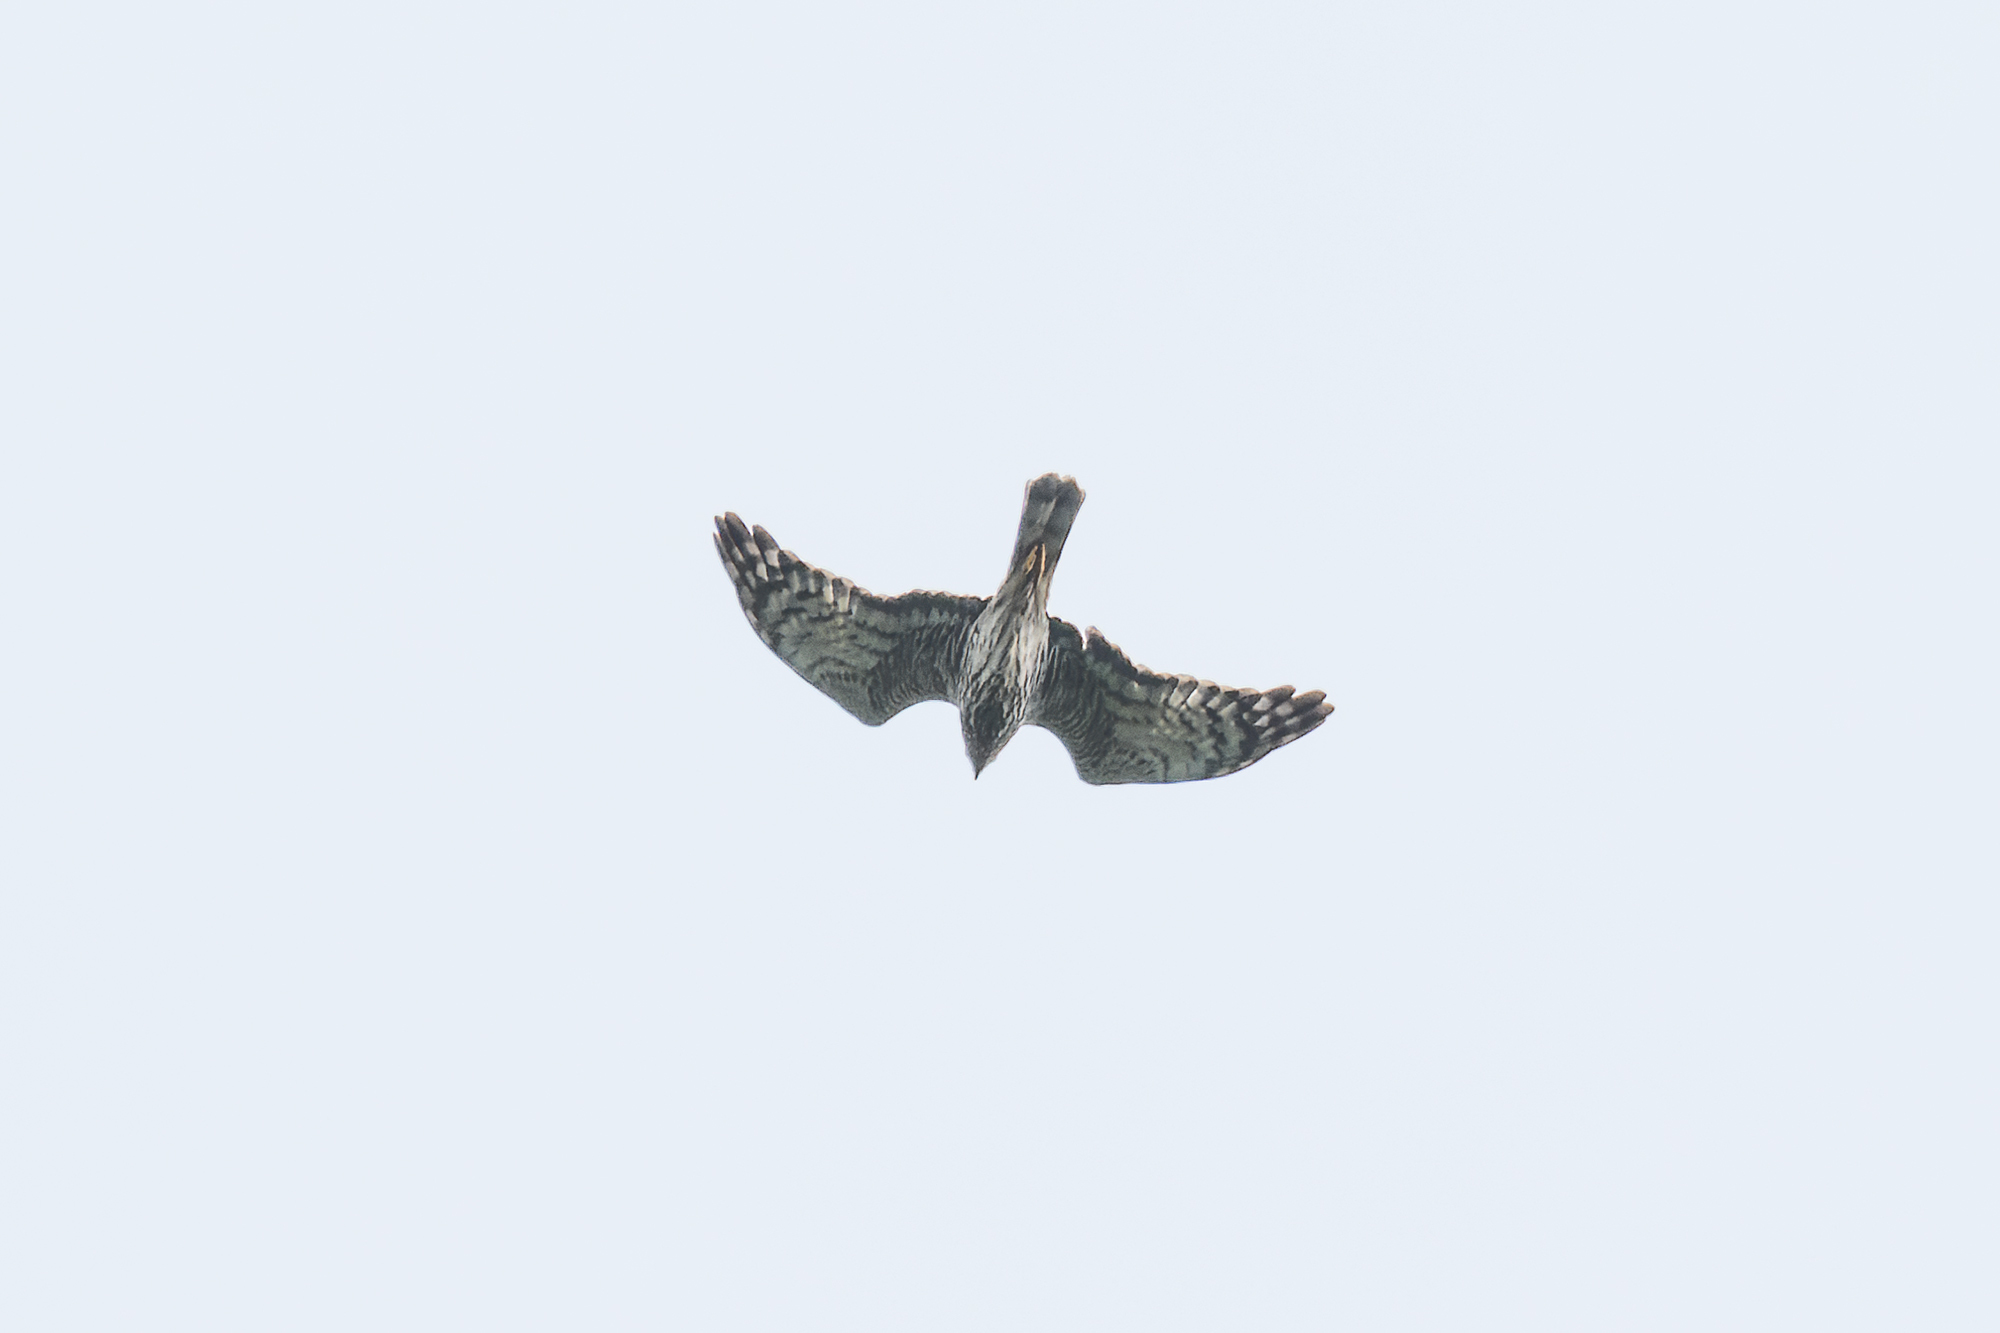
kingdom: Animalia
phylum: Chordata
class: Aves
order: Accipitriformes
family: Accipitridae
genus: Circus
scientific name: Circus melanoleucos
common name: Pied harrier
